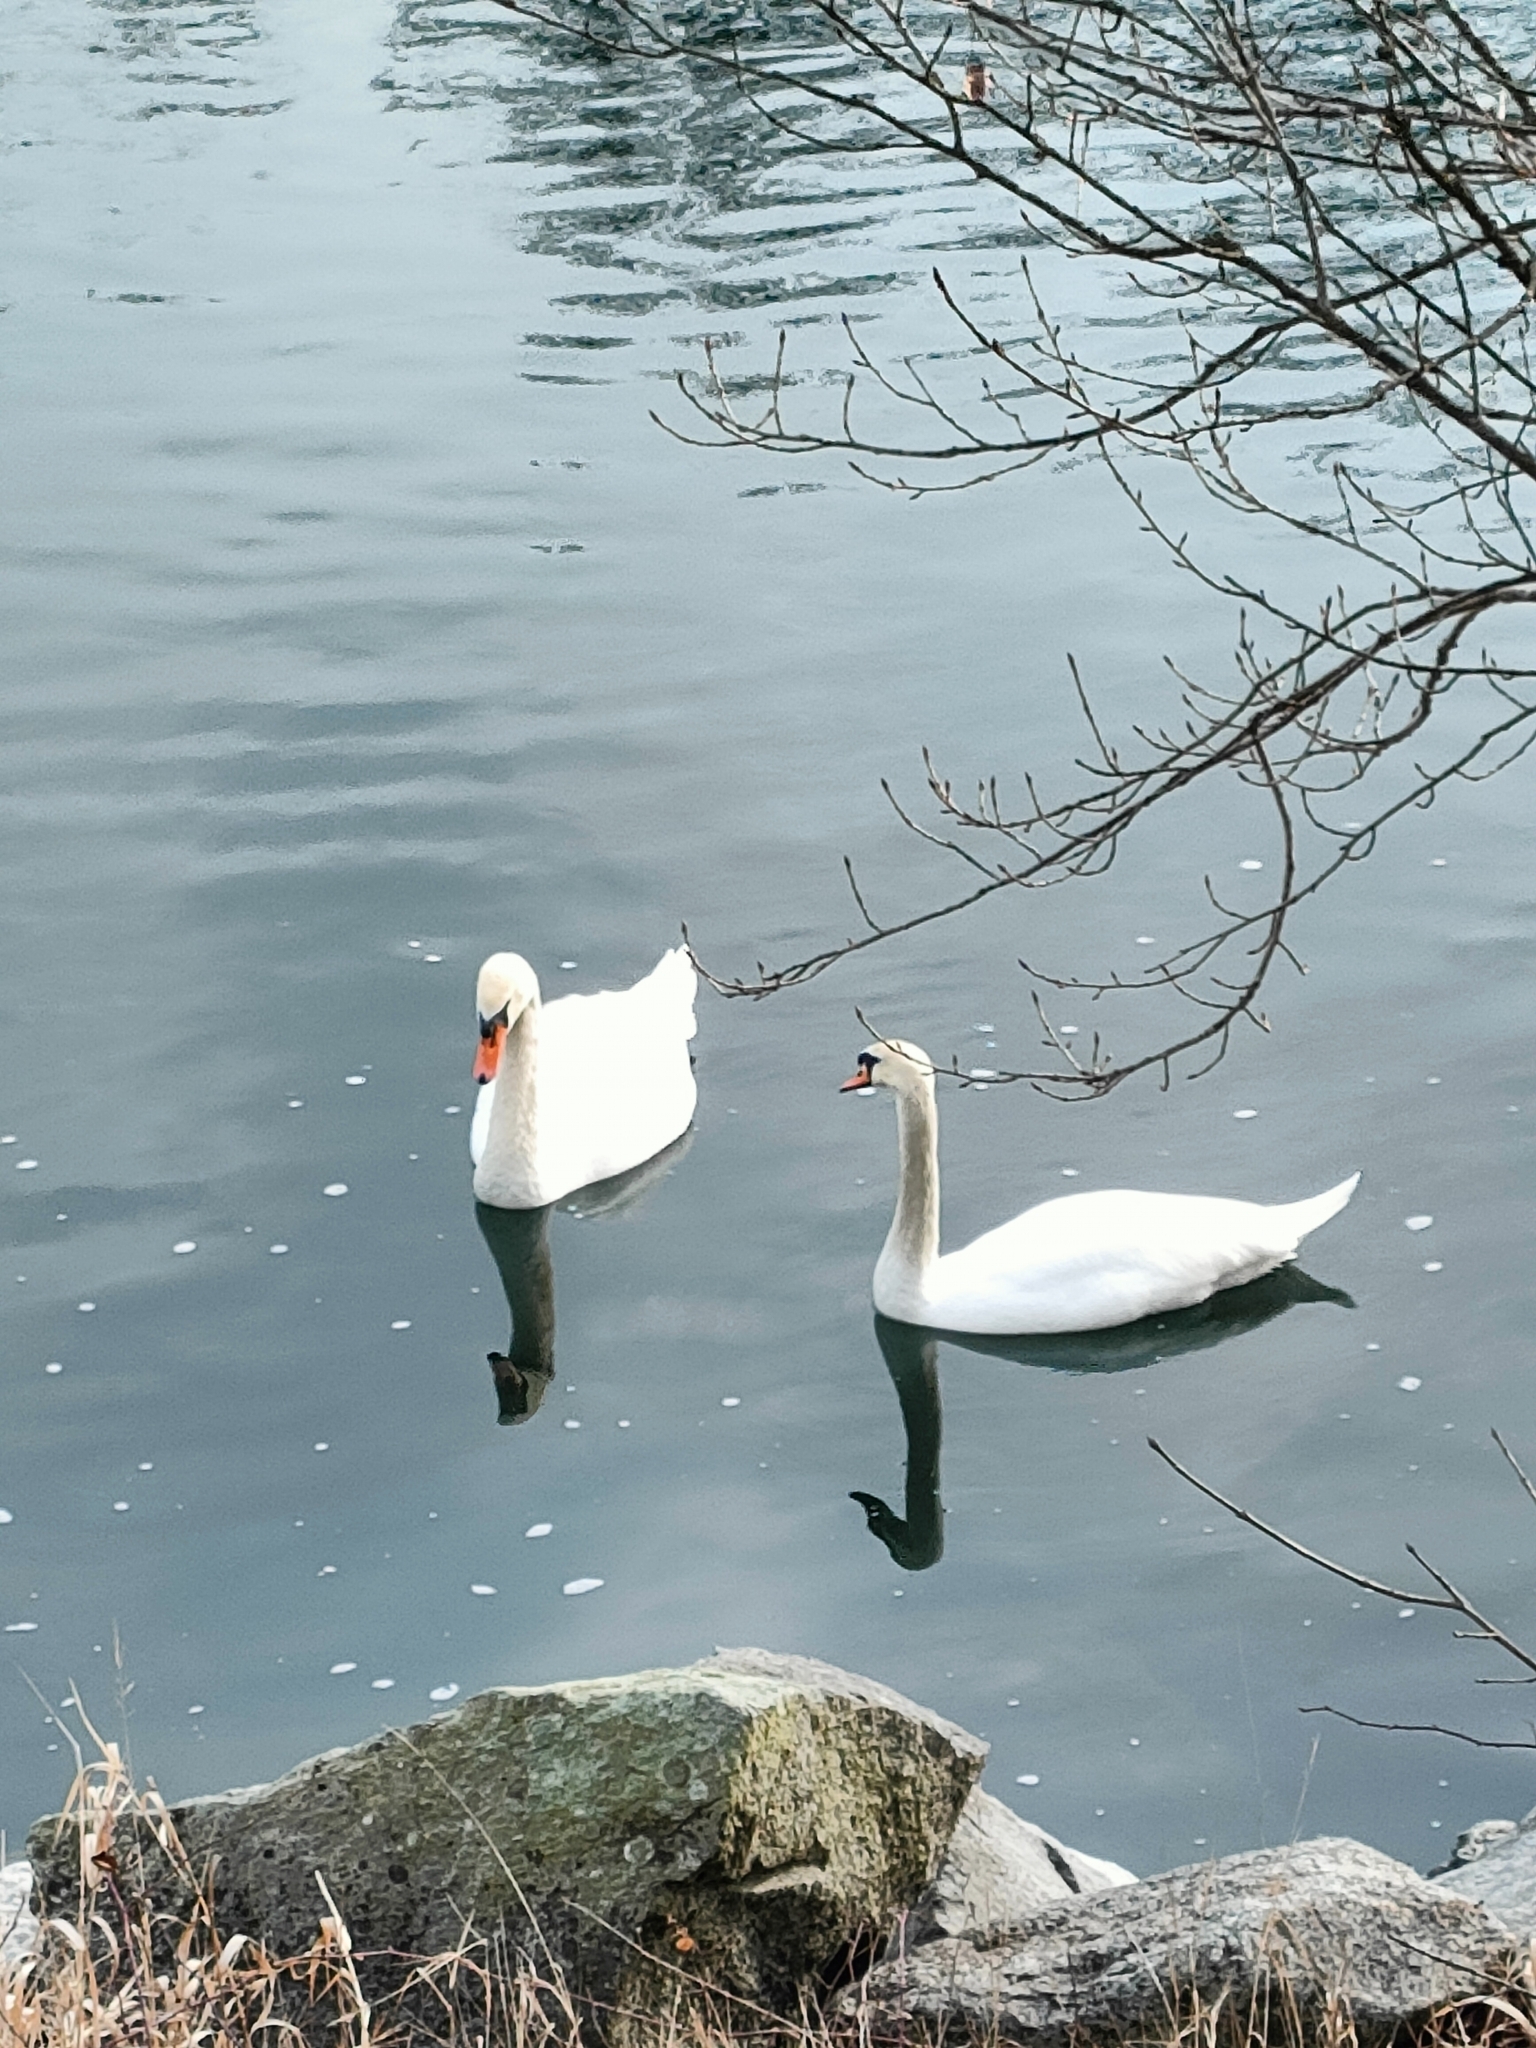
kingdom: Animalia
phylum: Chordata
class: Aves
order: Anseriformes
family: Anatidae
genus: Cygnus
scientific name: Cygnus olor
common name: Mute swan
